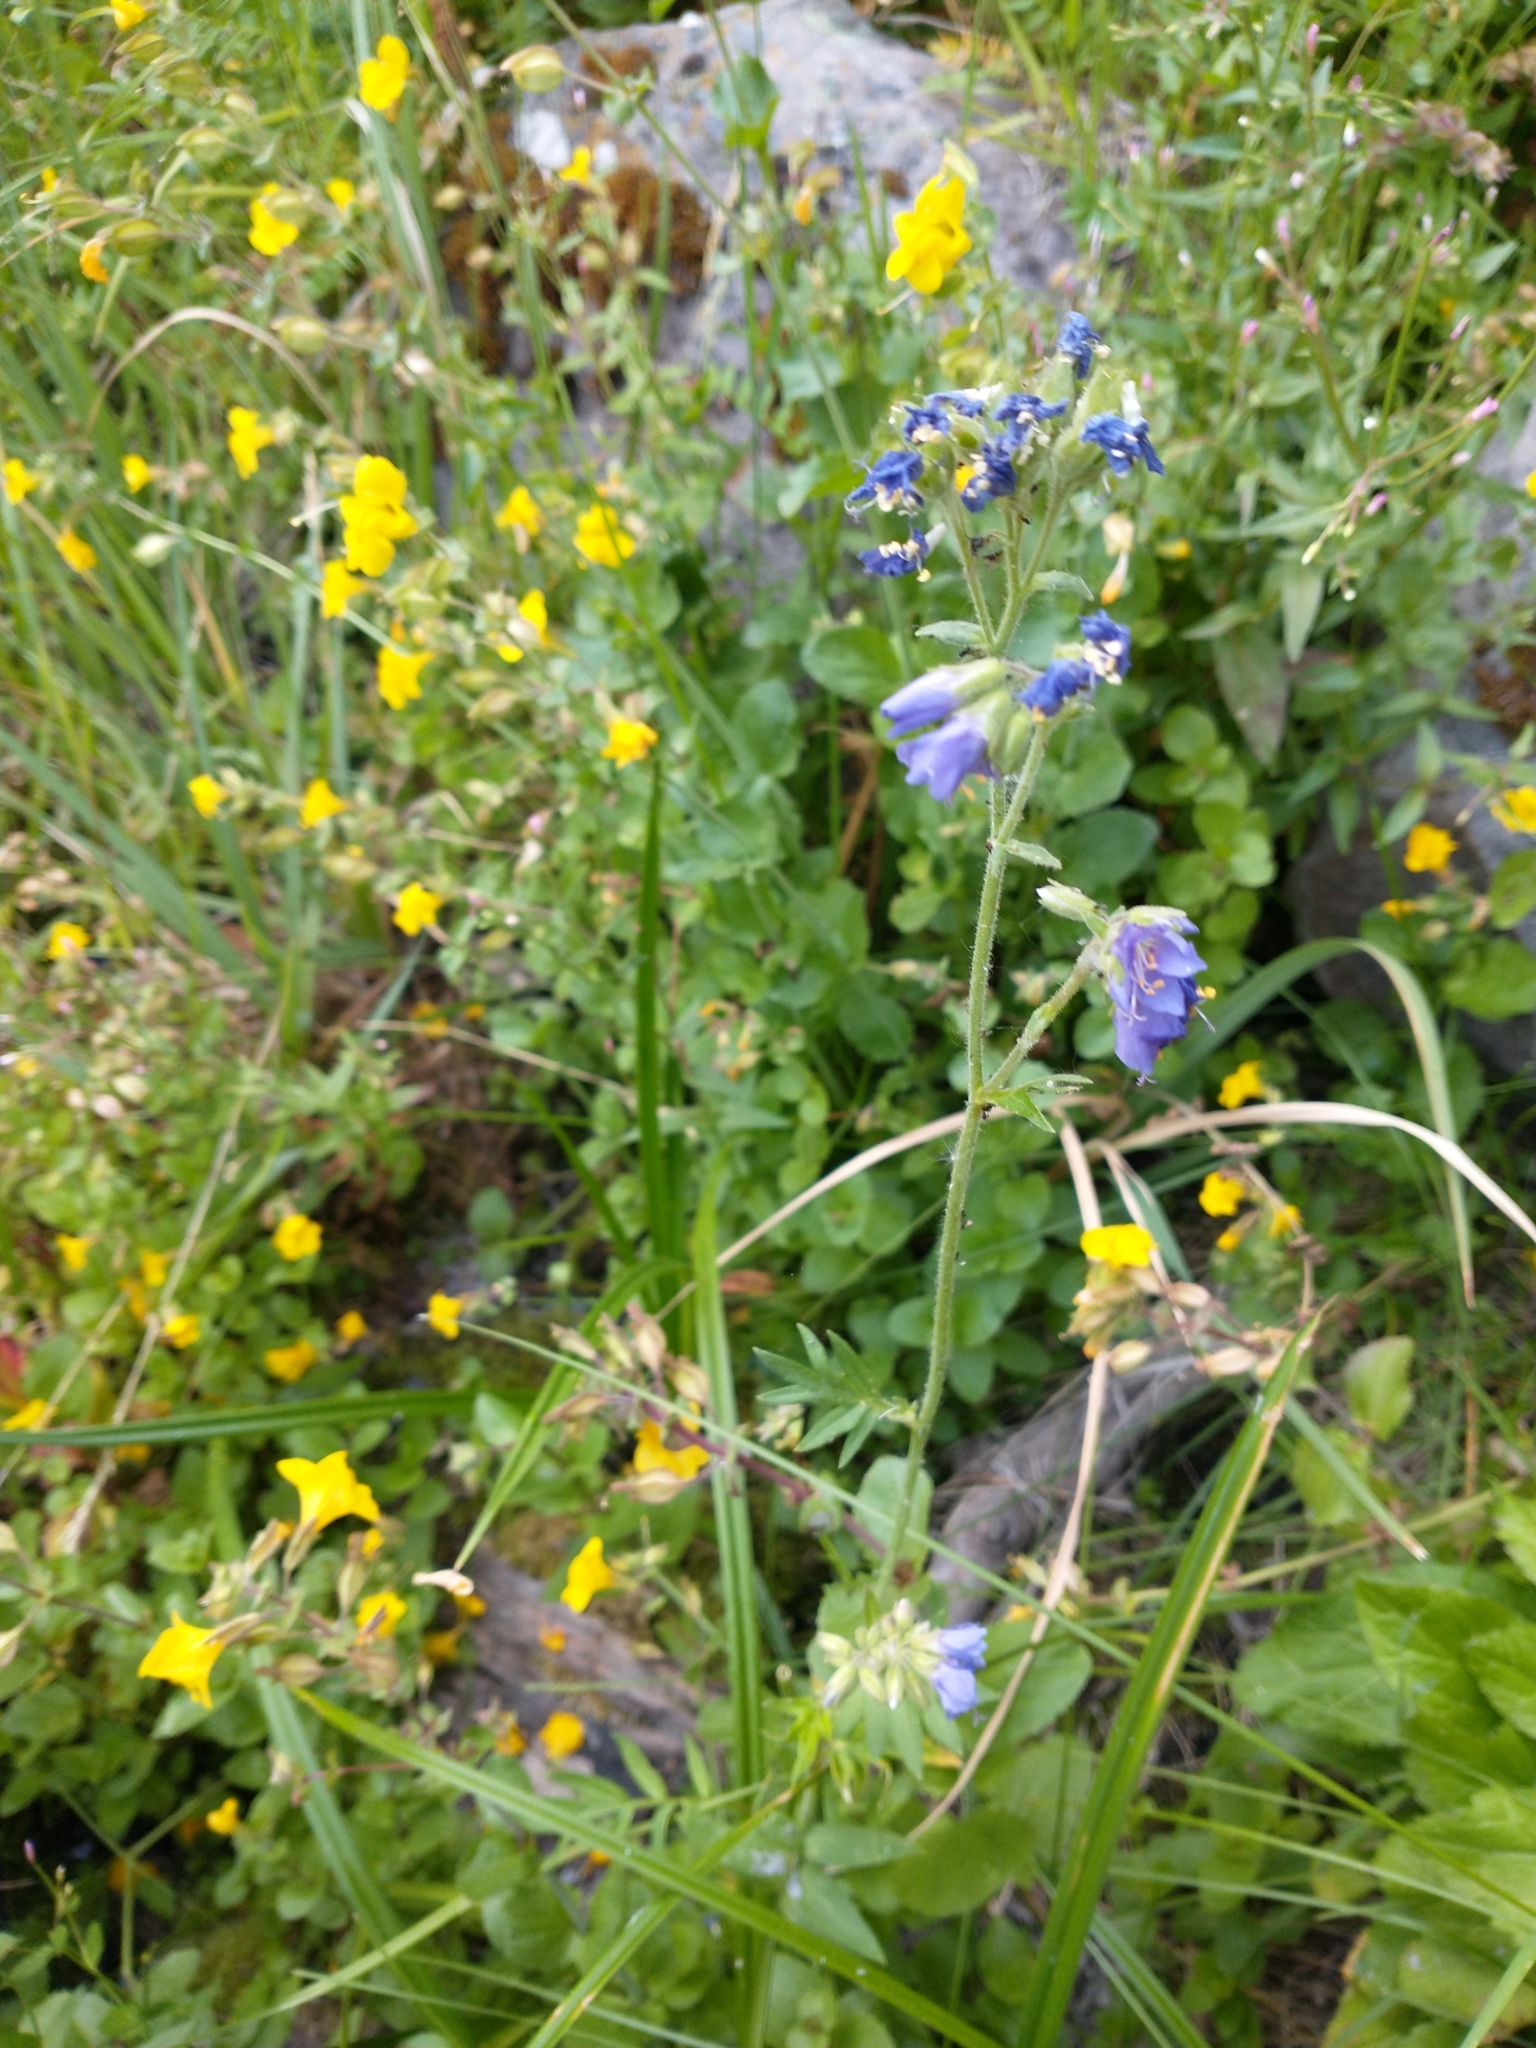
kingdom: Plantae
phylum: Tracheophyta
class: Magnoliopsida
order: Ericales
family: Polemoniaceae
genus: Polemonium
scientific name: Polemonium occidentale
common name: Western jacob's-ladder
